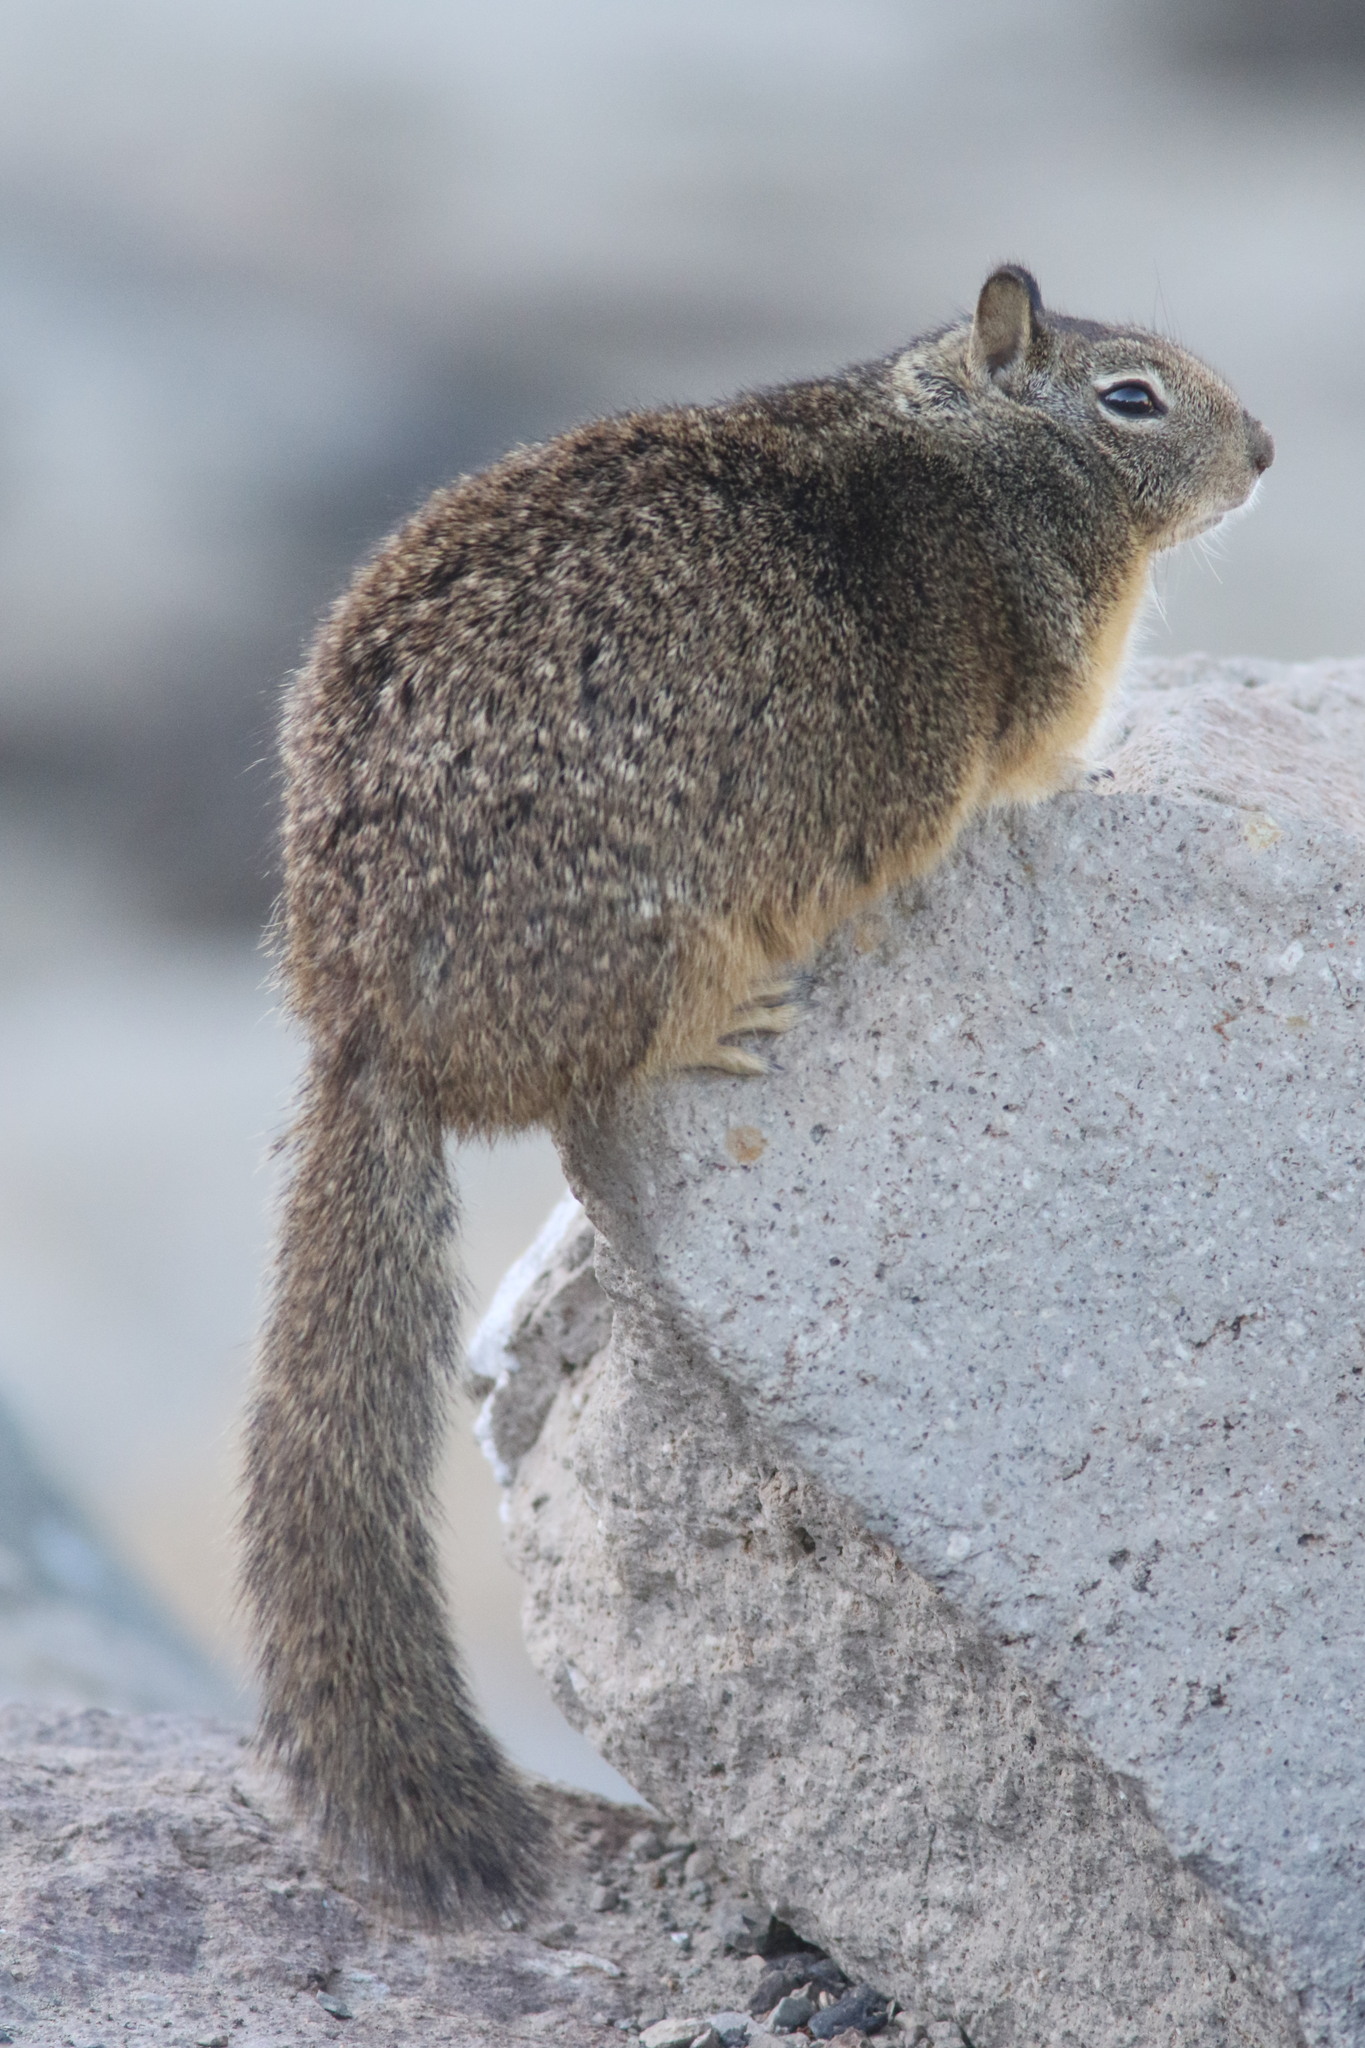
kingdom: Animalia
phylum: Chordata
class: Mammalia
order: Rodentia
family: Sciuridae
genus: Otospermophilus
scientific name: Otospermophilus beecheyi
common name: California ground squirrel
